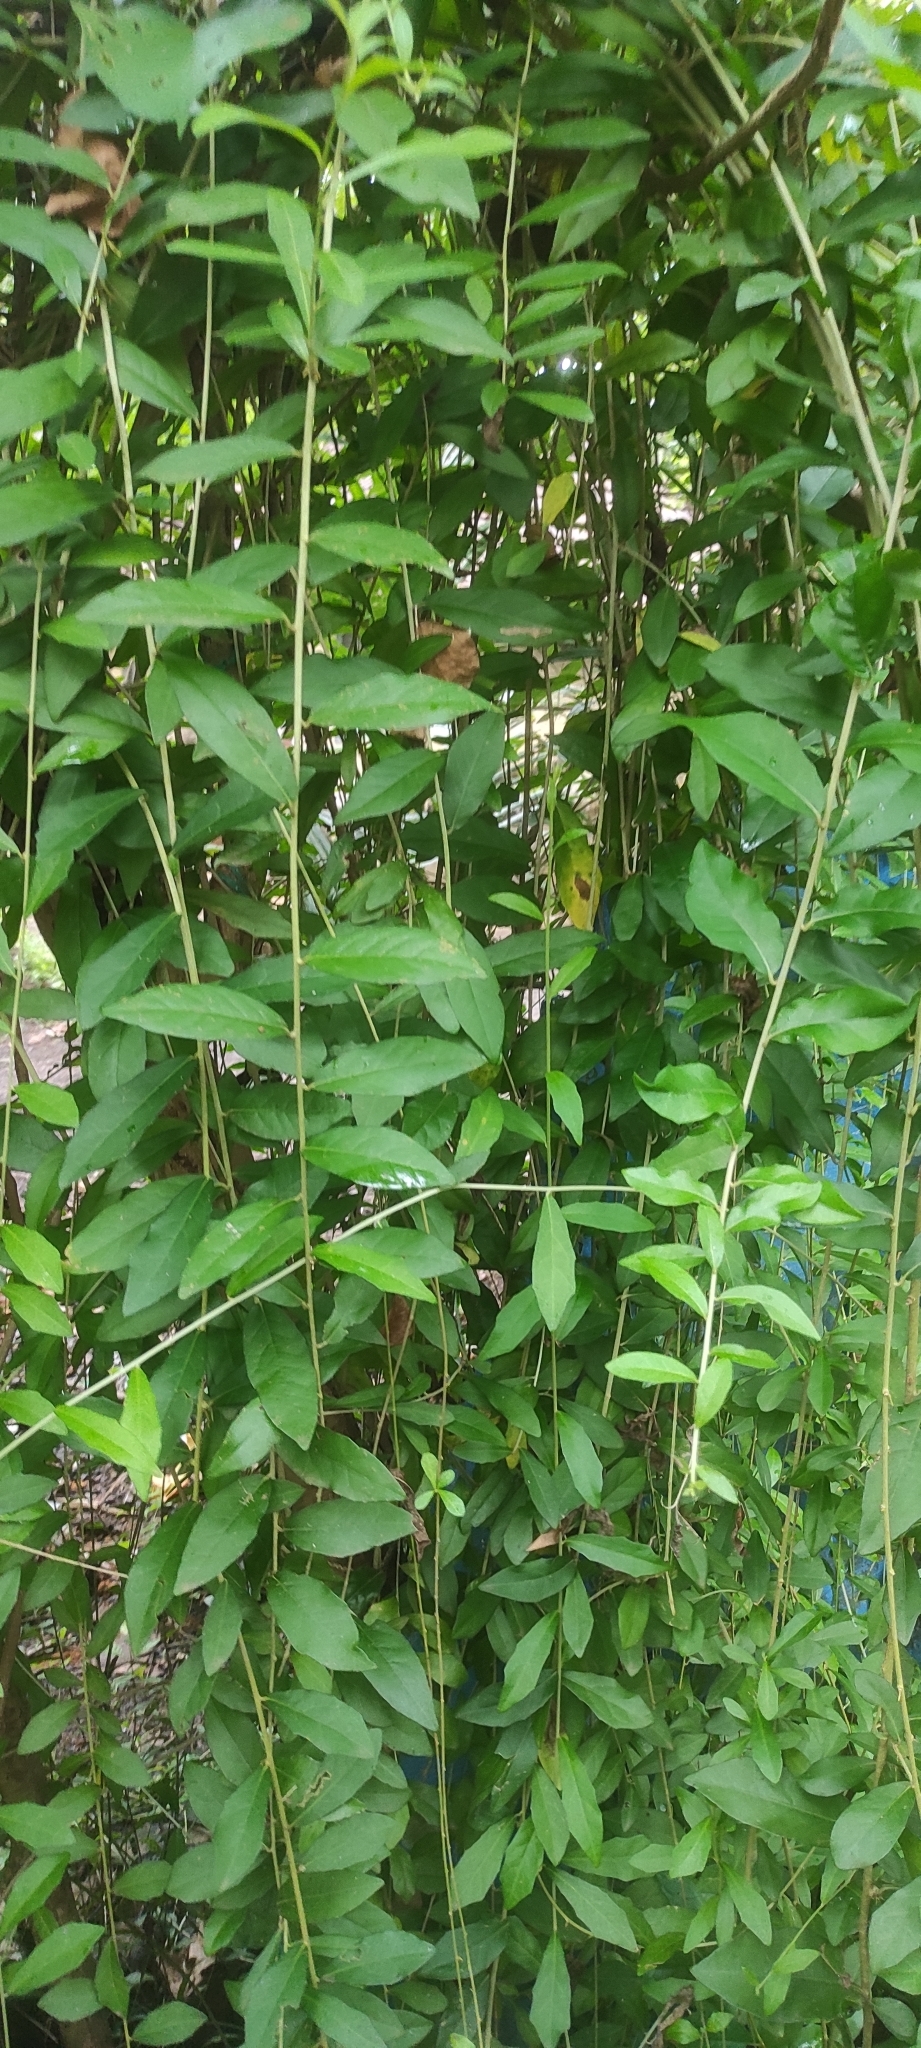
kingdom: Plantae
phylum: Tracheophyta
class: Magnoliopsida
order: Asterales
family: Asteraceae
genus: Tarlmounia
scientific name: Tarlmounia elliptica
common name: Kheua sa lot
